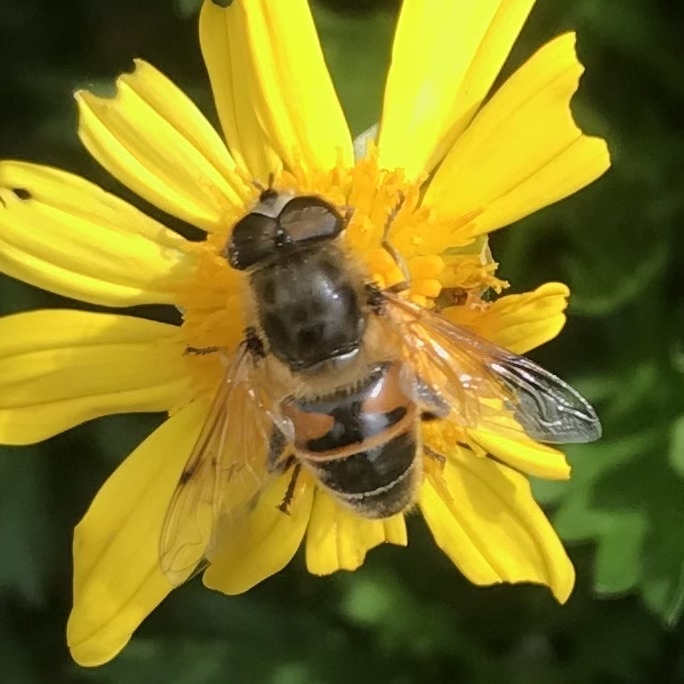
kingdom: Animalia
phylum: Arthropoda
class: Insecta
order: Diptera
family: Syrphidae
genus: Eristalis
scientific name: Eristalis tenax
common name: Drone fly
